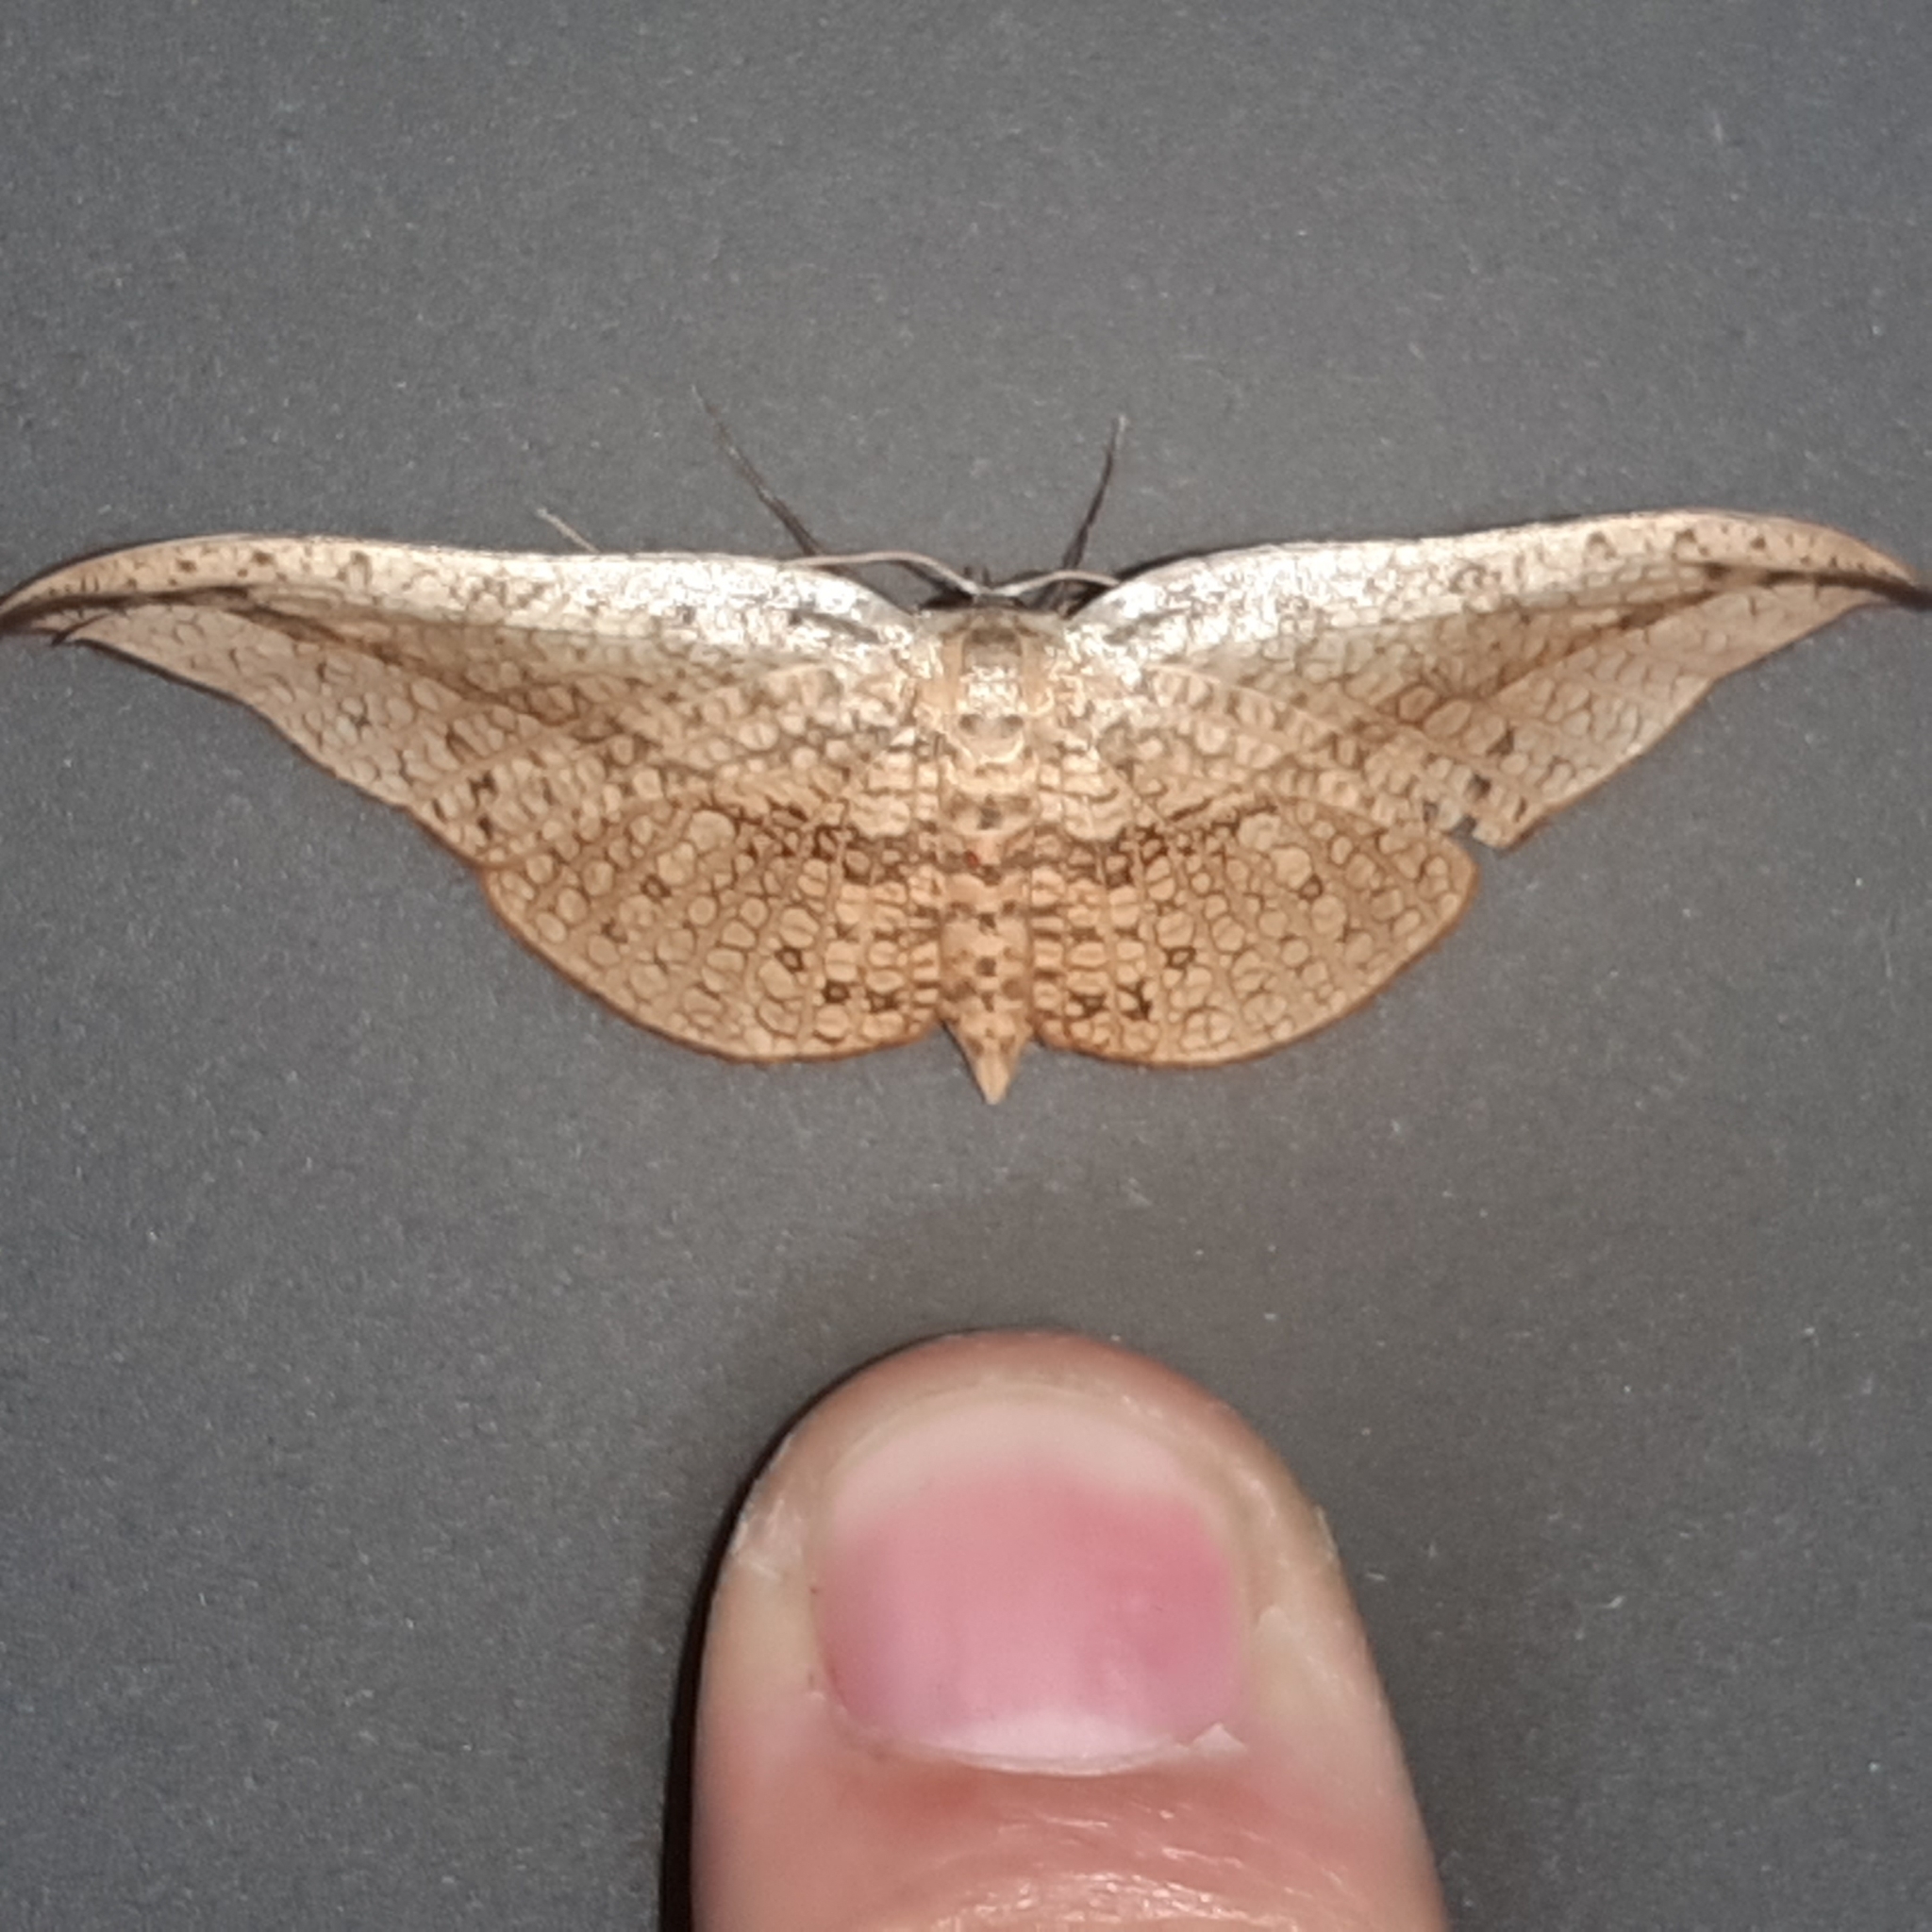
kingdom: Animalia
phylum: Arthropoda
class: Insecta
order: Lepidoptera
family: Thyrididae
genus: Siculodes
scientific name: Siculodes substrigata
